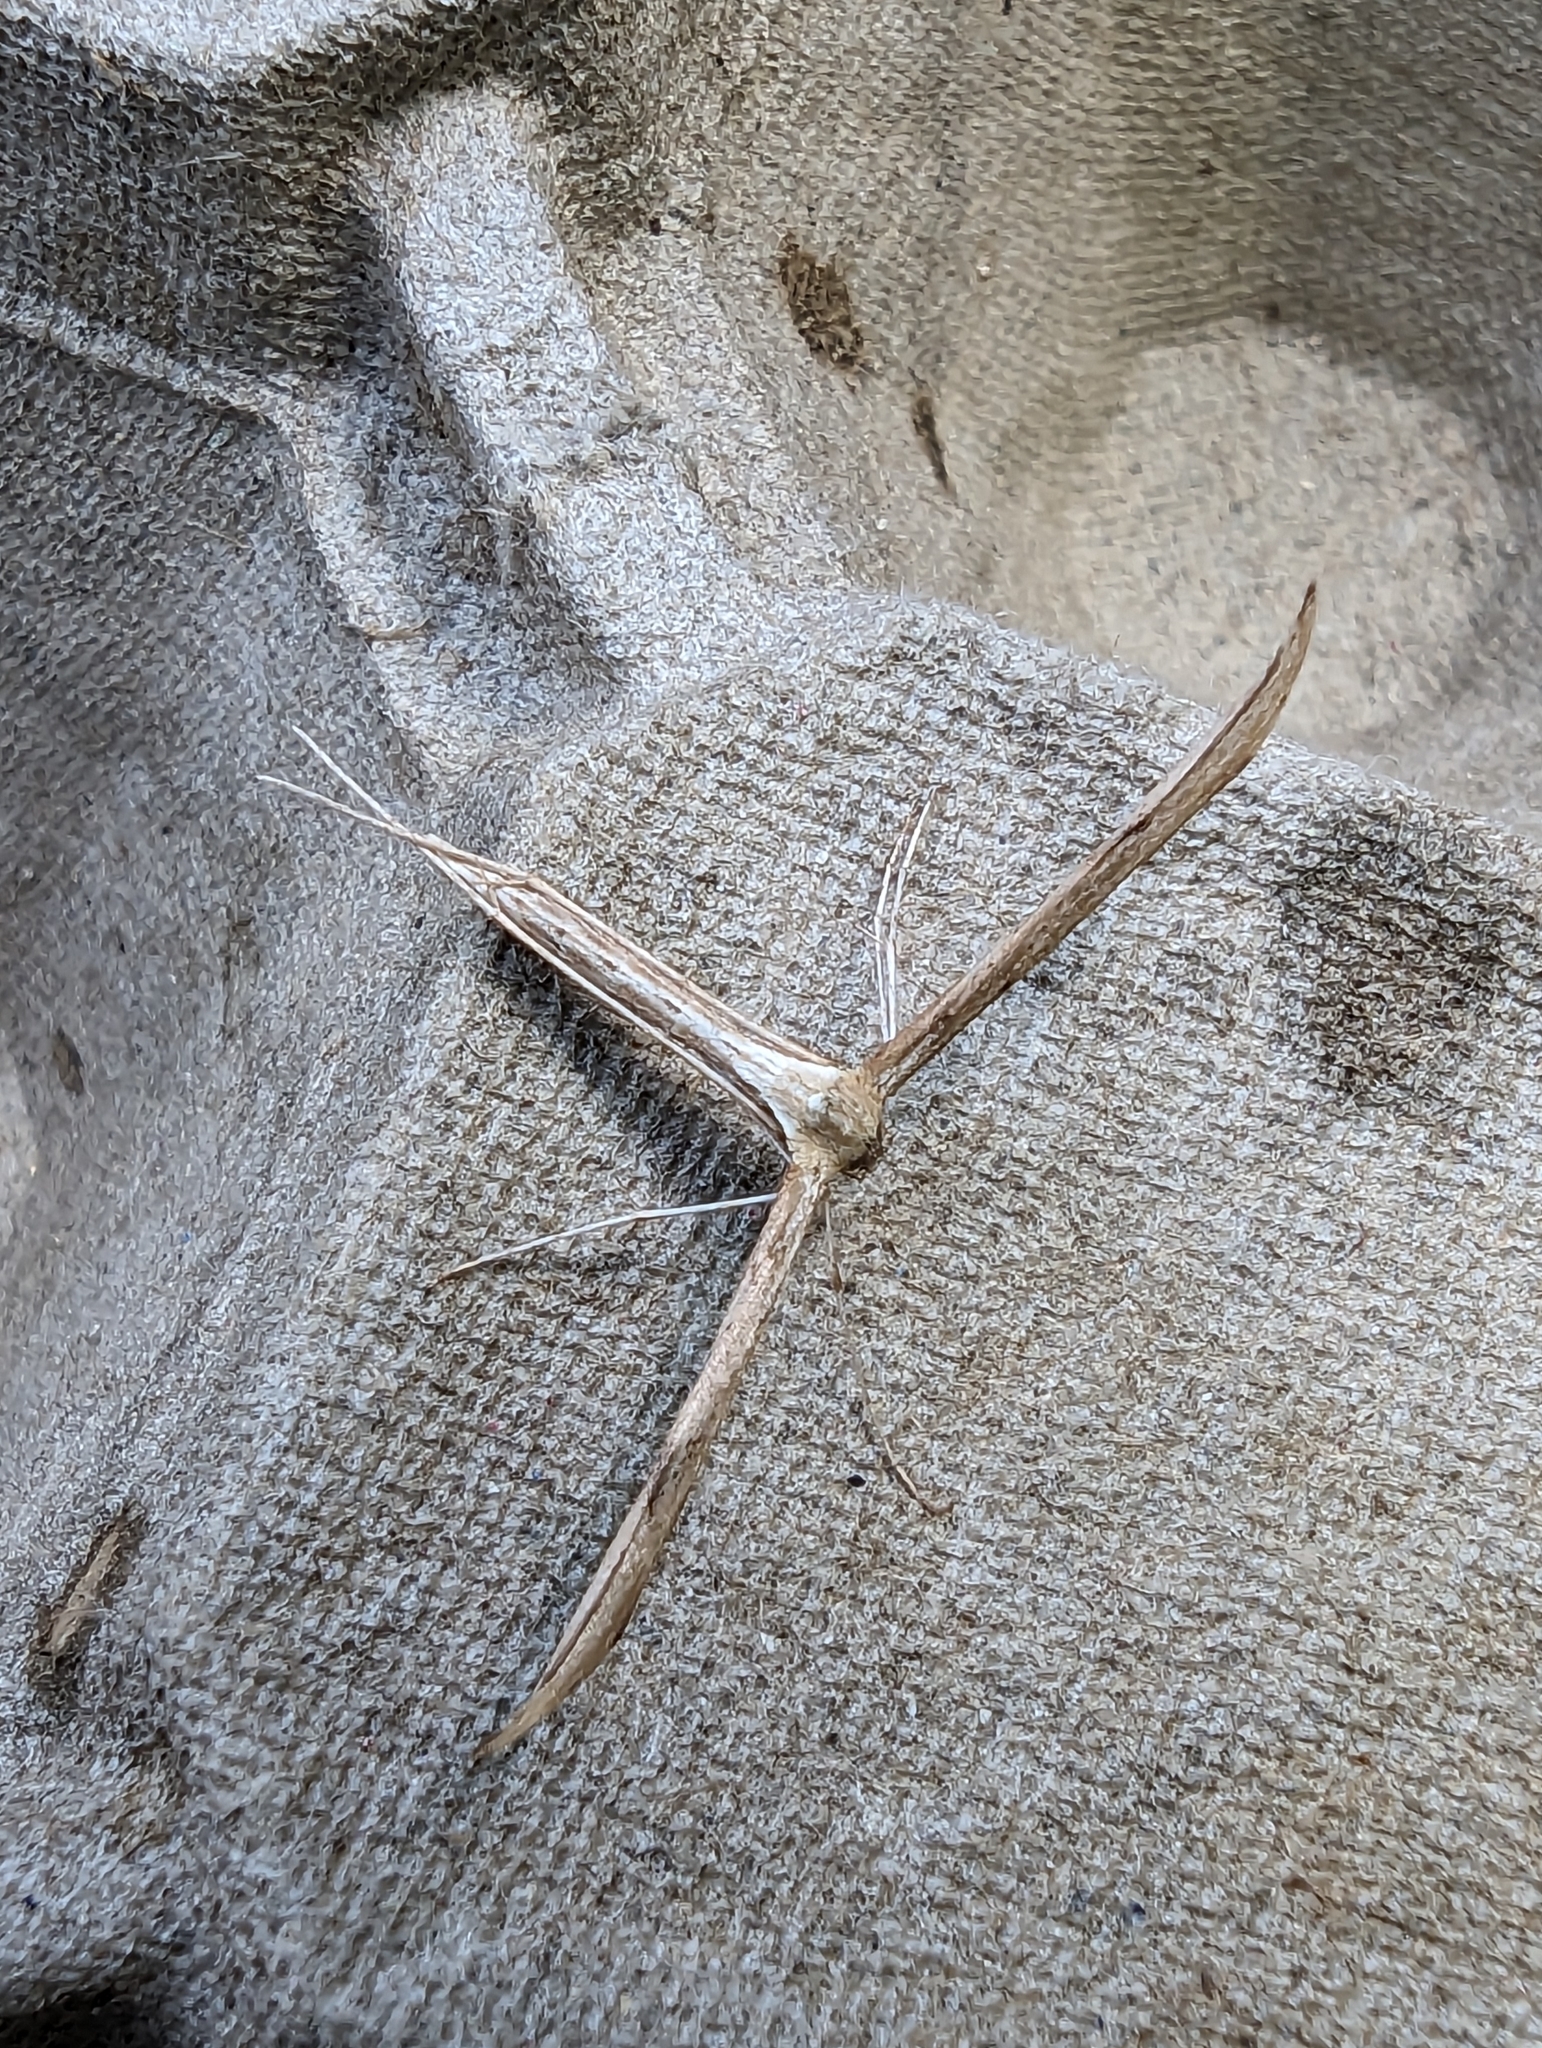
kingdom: Animalia
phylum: Arthropoda
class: Insecta
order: Lepidoptera
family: Pterophoridae
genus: Emmelina
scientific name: Emmelina monodactyla
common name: Common plume
